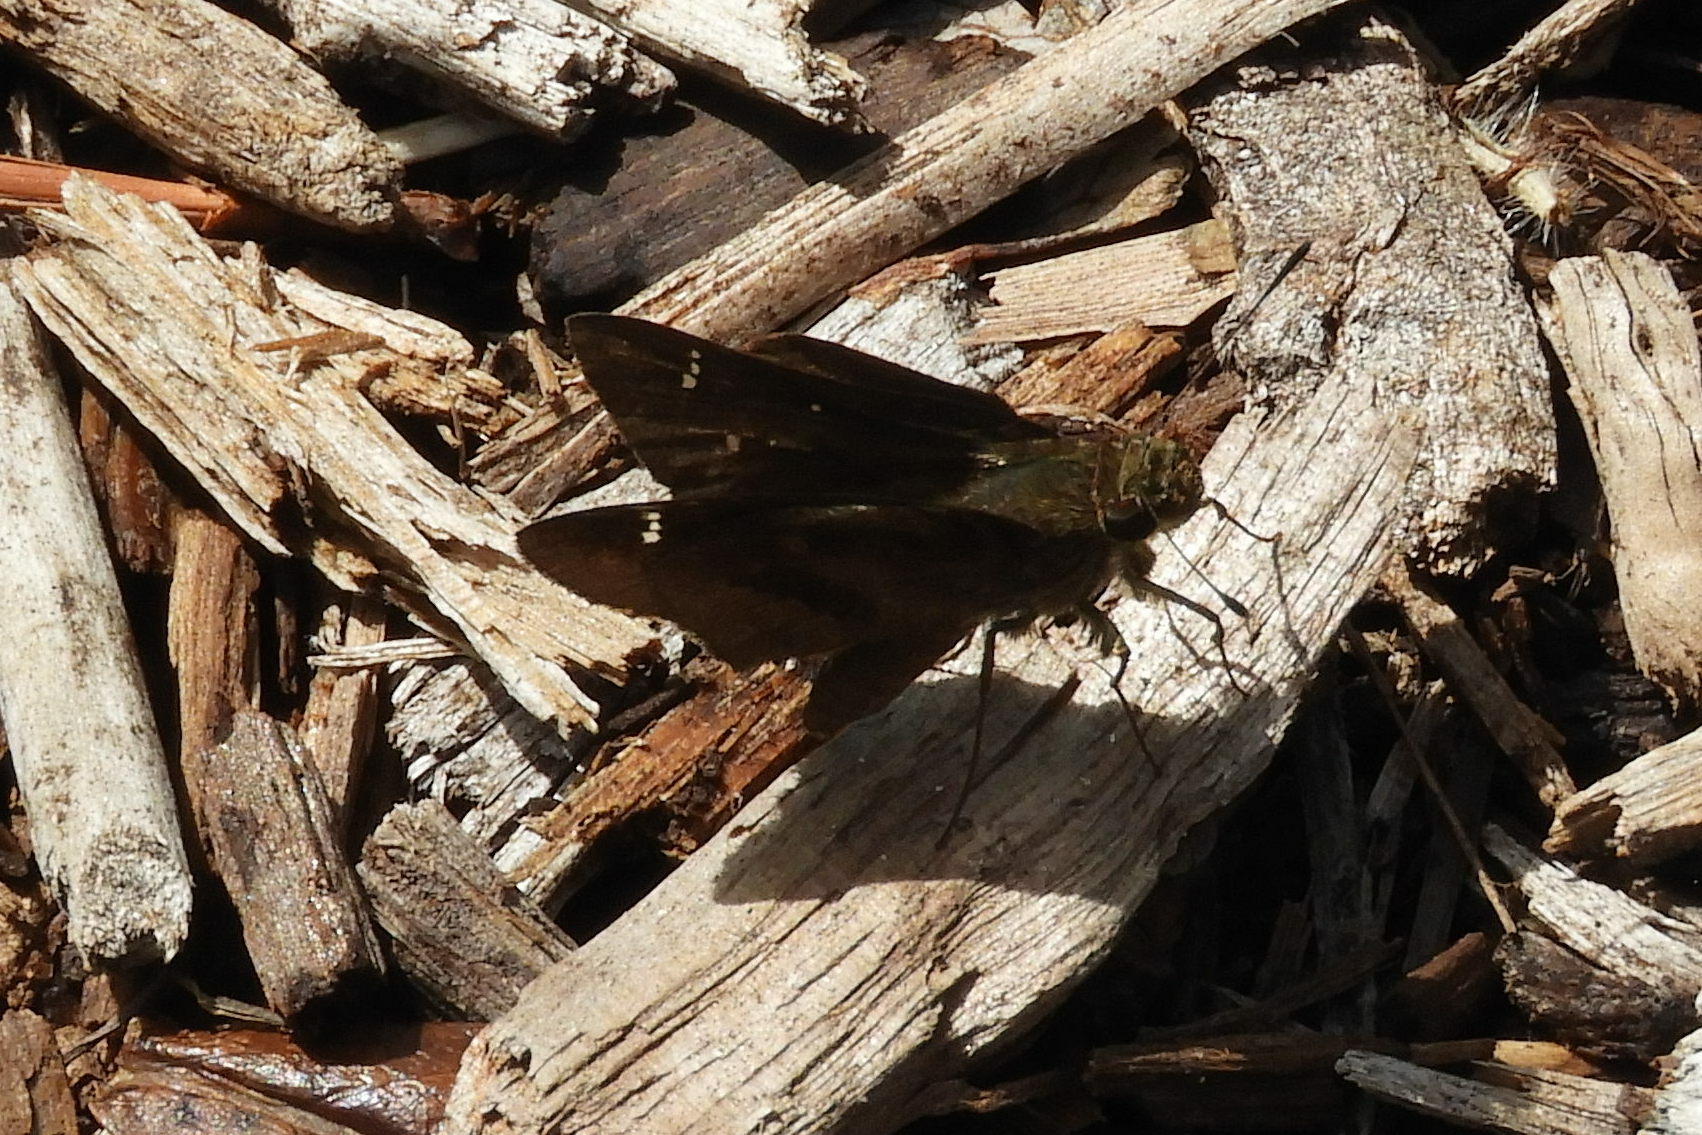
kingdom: Animalia
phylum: Arthropoda
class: Insecta
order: Lepidoptera
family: Hesperiidae
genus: Lerema
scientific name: Lerema accius
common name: Clouded skipper
